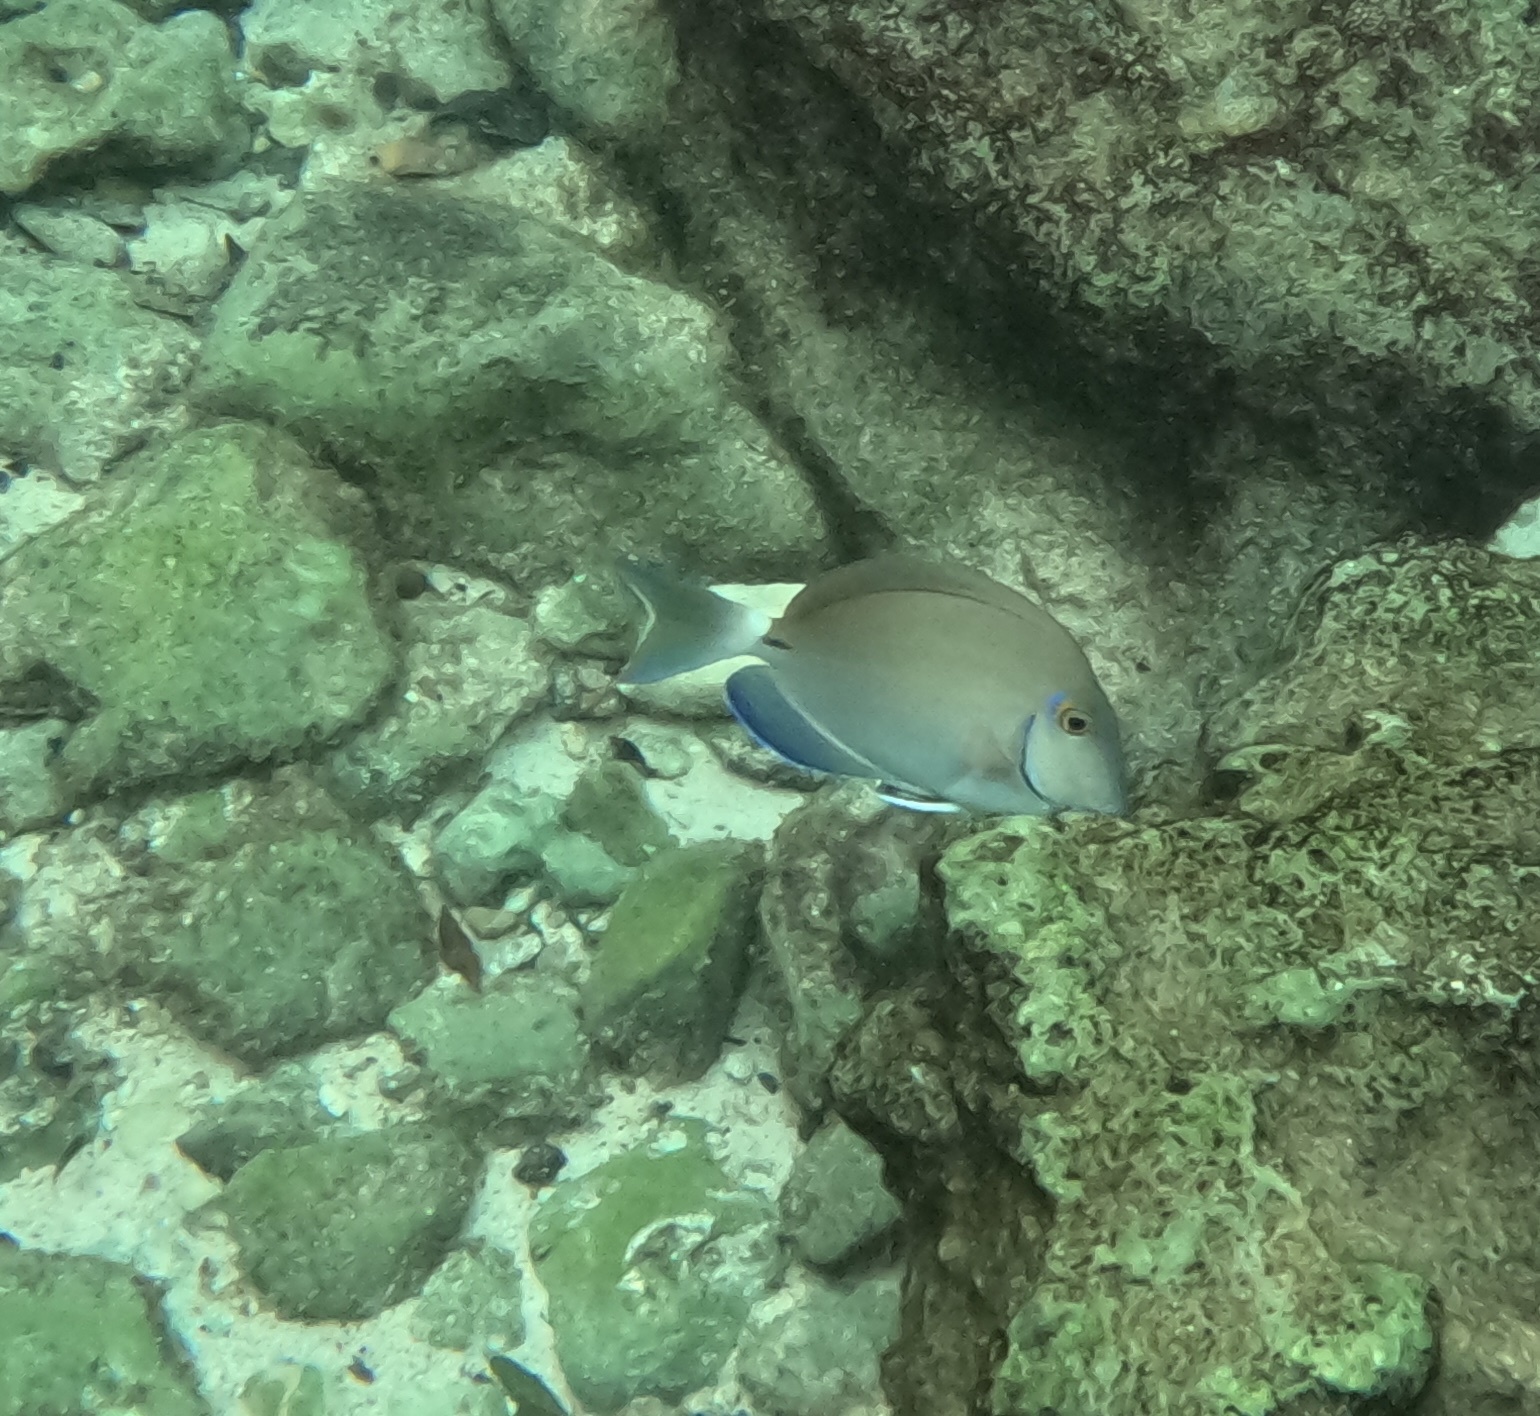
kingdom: Animalia
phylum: Chordata
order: Perciformes
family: Acanthuridae
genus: Acanthurus
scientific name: Acanthurus bahianus
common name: Ocean surgeon
